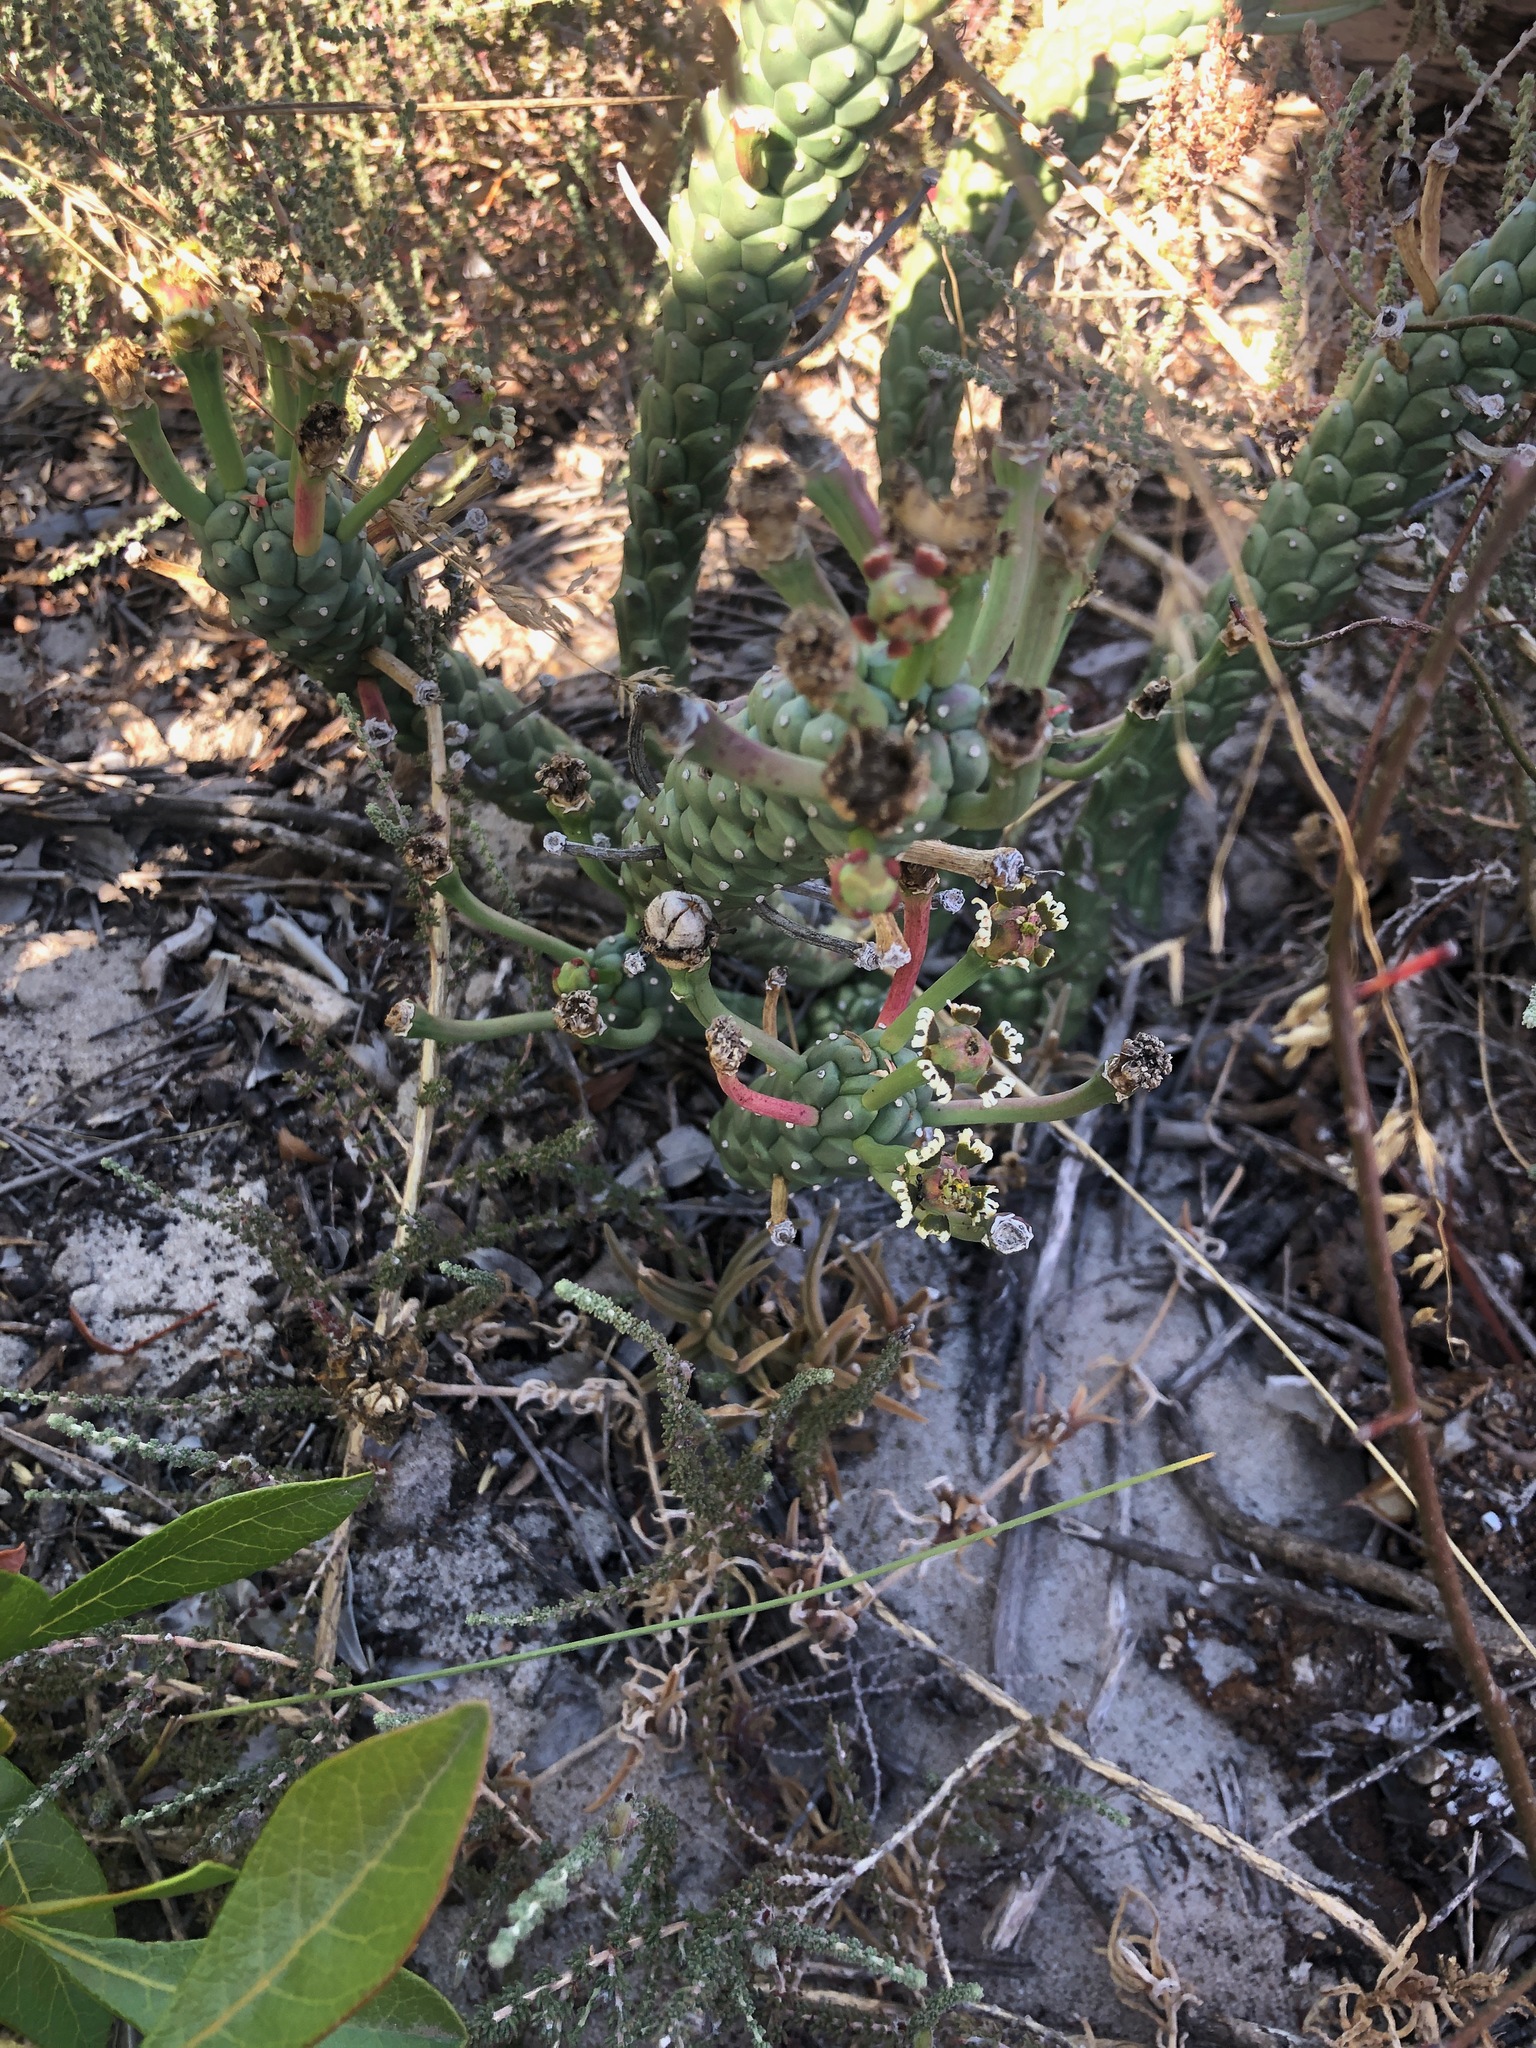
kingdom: Plantae
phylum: Tracheophyta
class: Magnoliopsida
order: Malpighiales
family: Euphorbiaceae
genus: Euphorbia
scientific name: Euphorbia caput-medusae
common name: Medusa's-head
